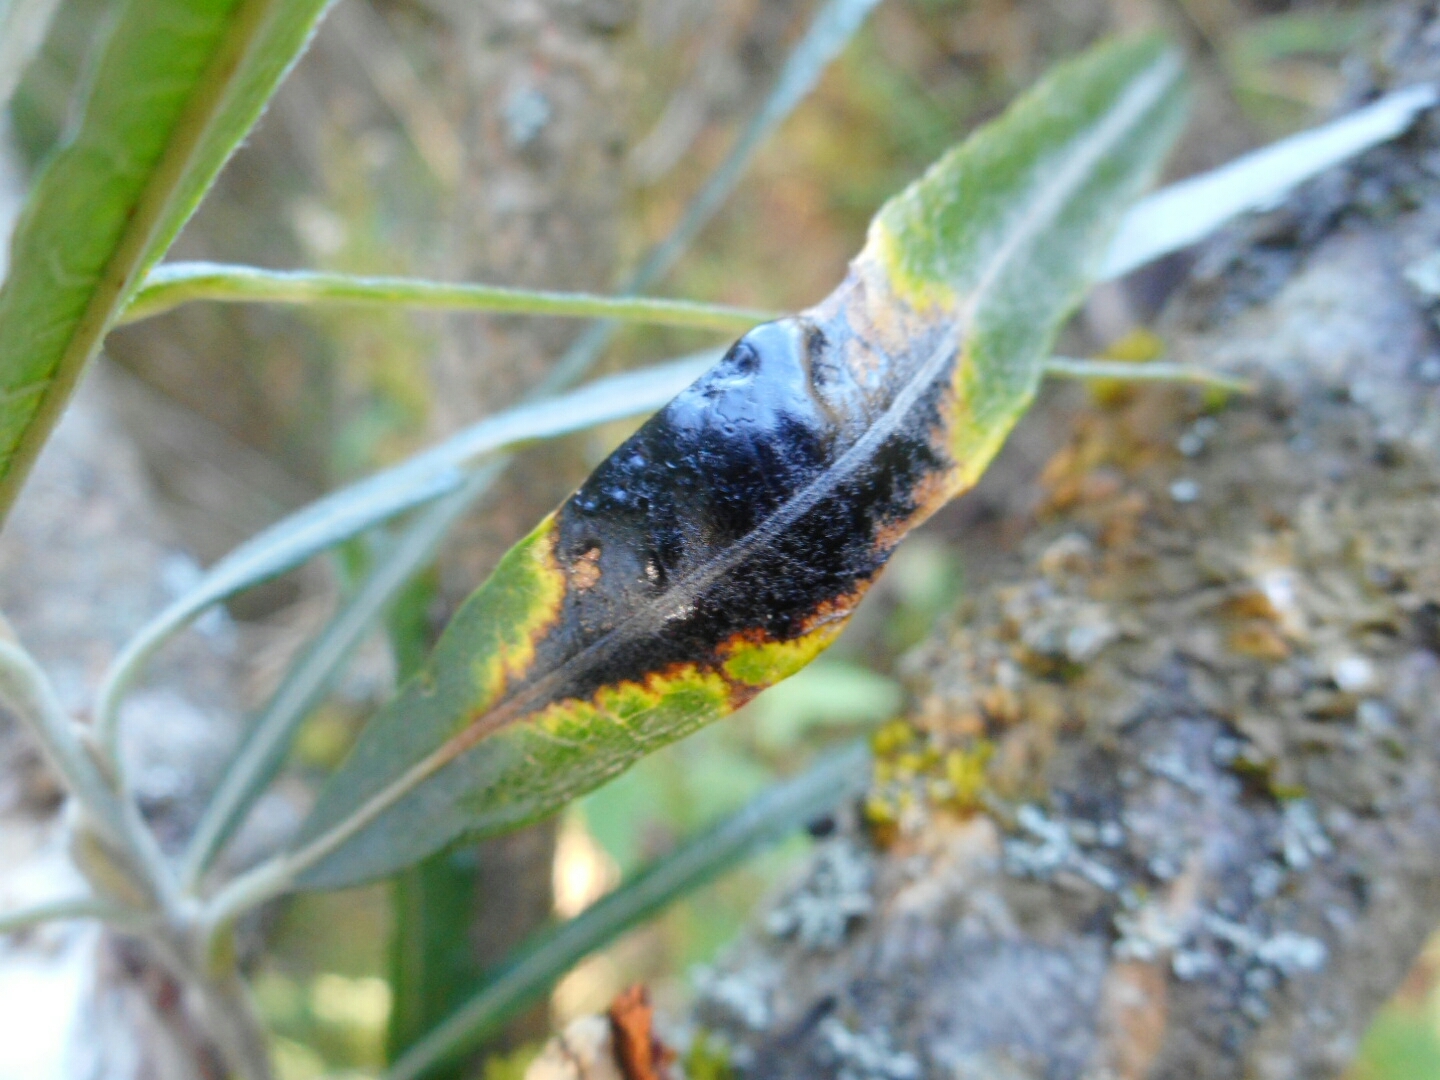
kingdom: Fungi
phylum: Ascomycota
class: Leotiomycetes
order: Rhytismatales
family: Rhytismataceae
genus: Rhytisma
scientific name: Rhytisma salicinum
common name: Willow tarspot
